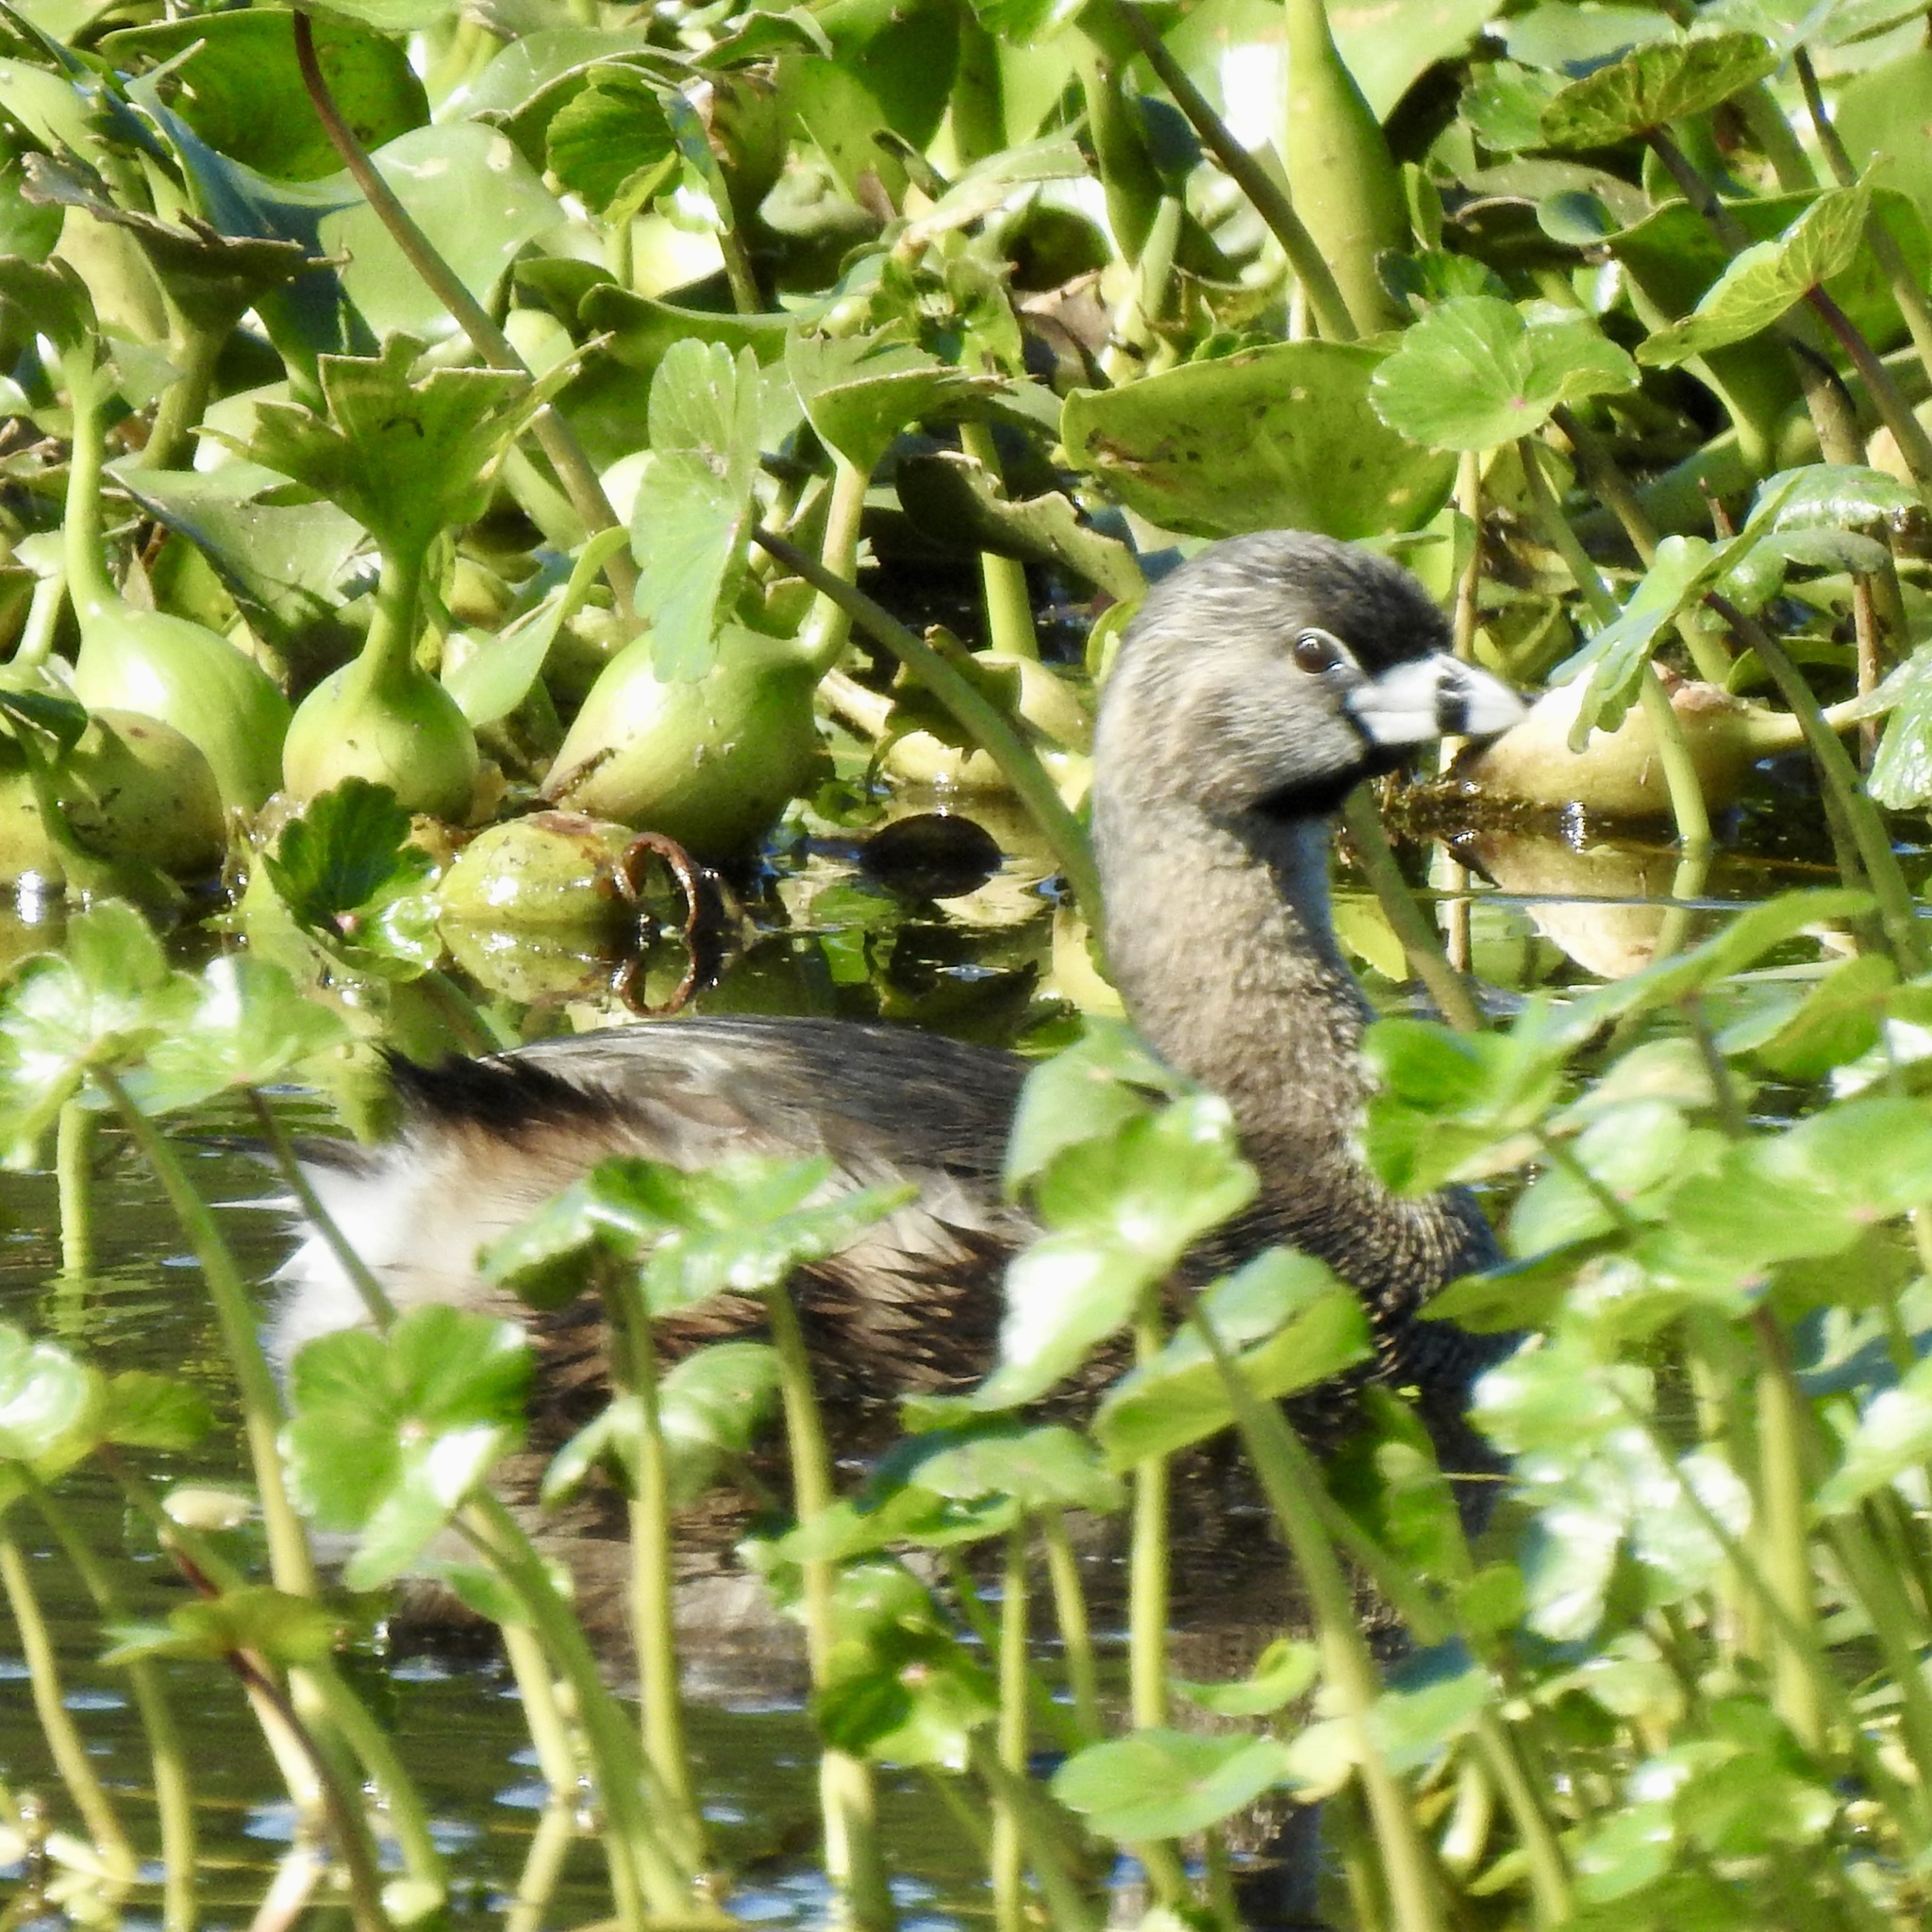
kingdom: Animalia
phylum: Chordata
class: Aves
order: Podicipediformes
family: Podicipedidae
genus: Podilymbus
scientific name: Podilymbus podiceps
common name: Pied-billed grebe
